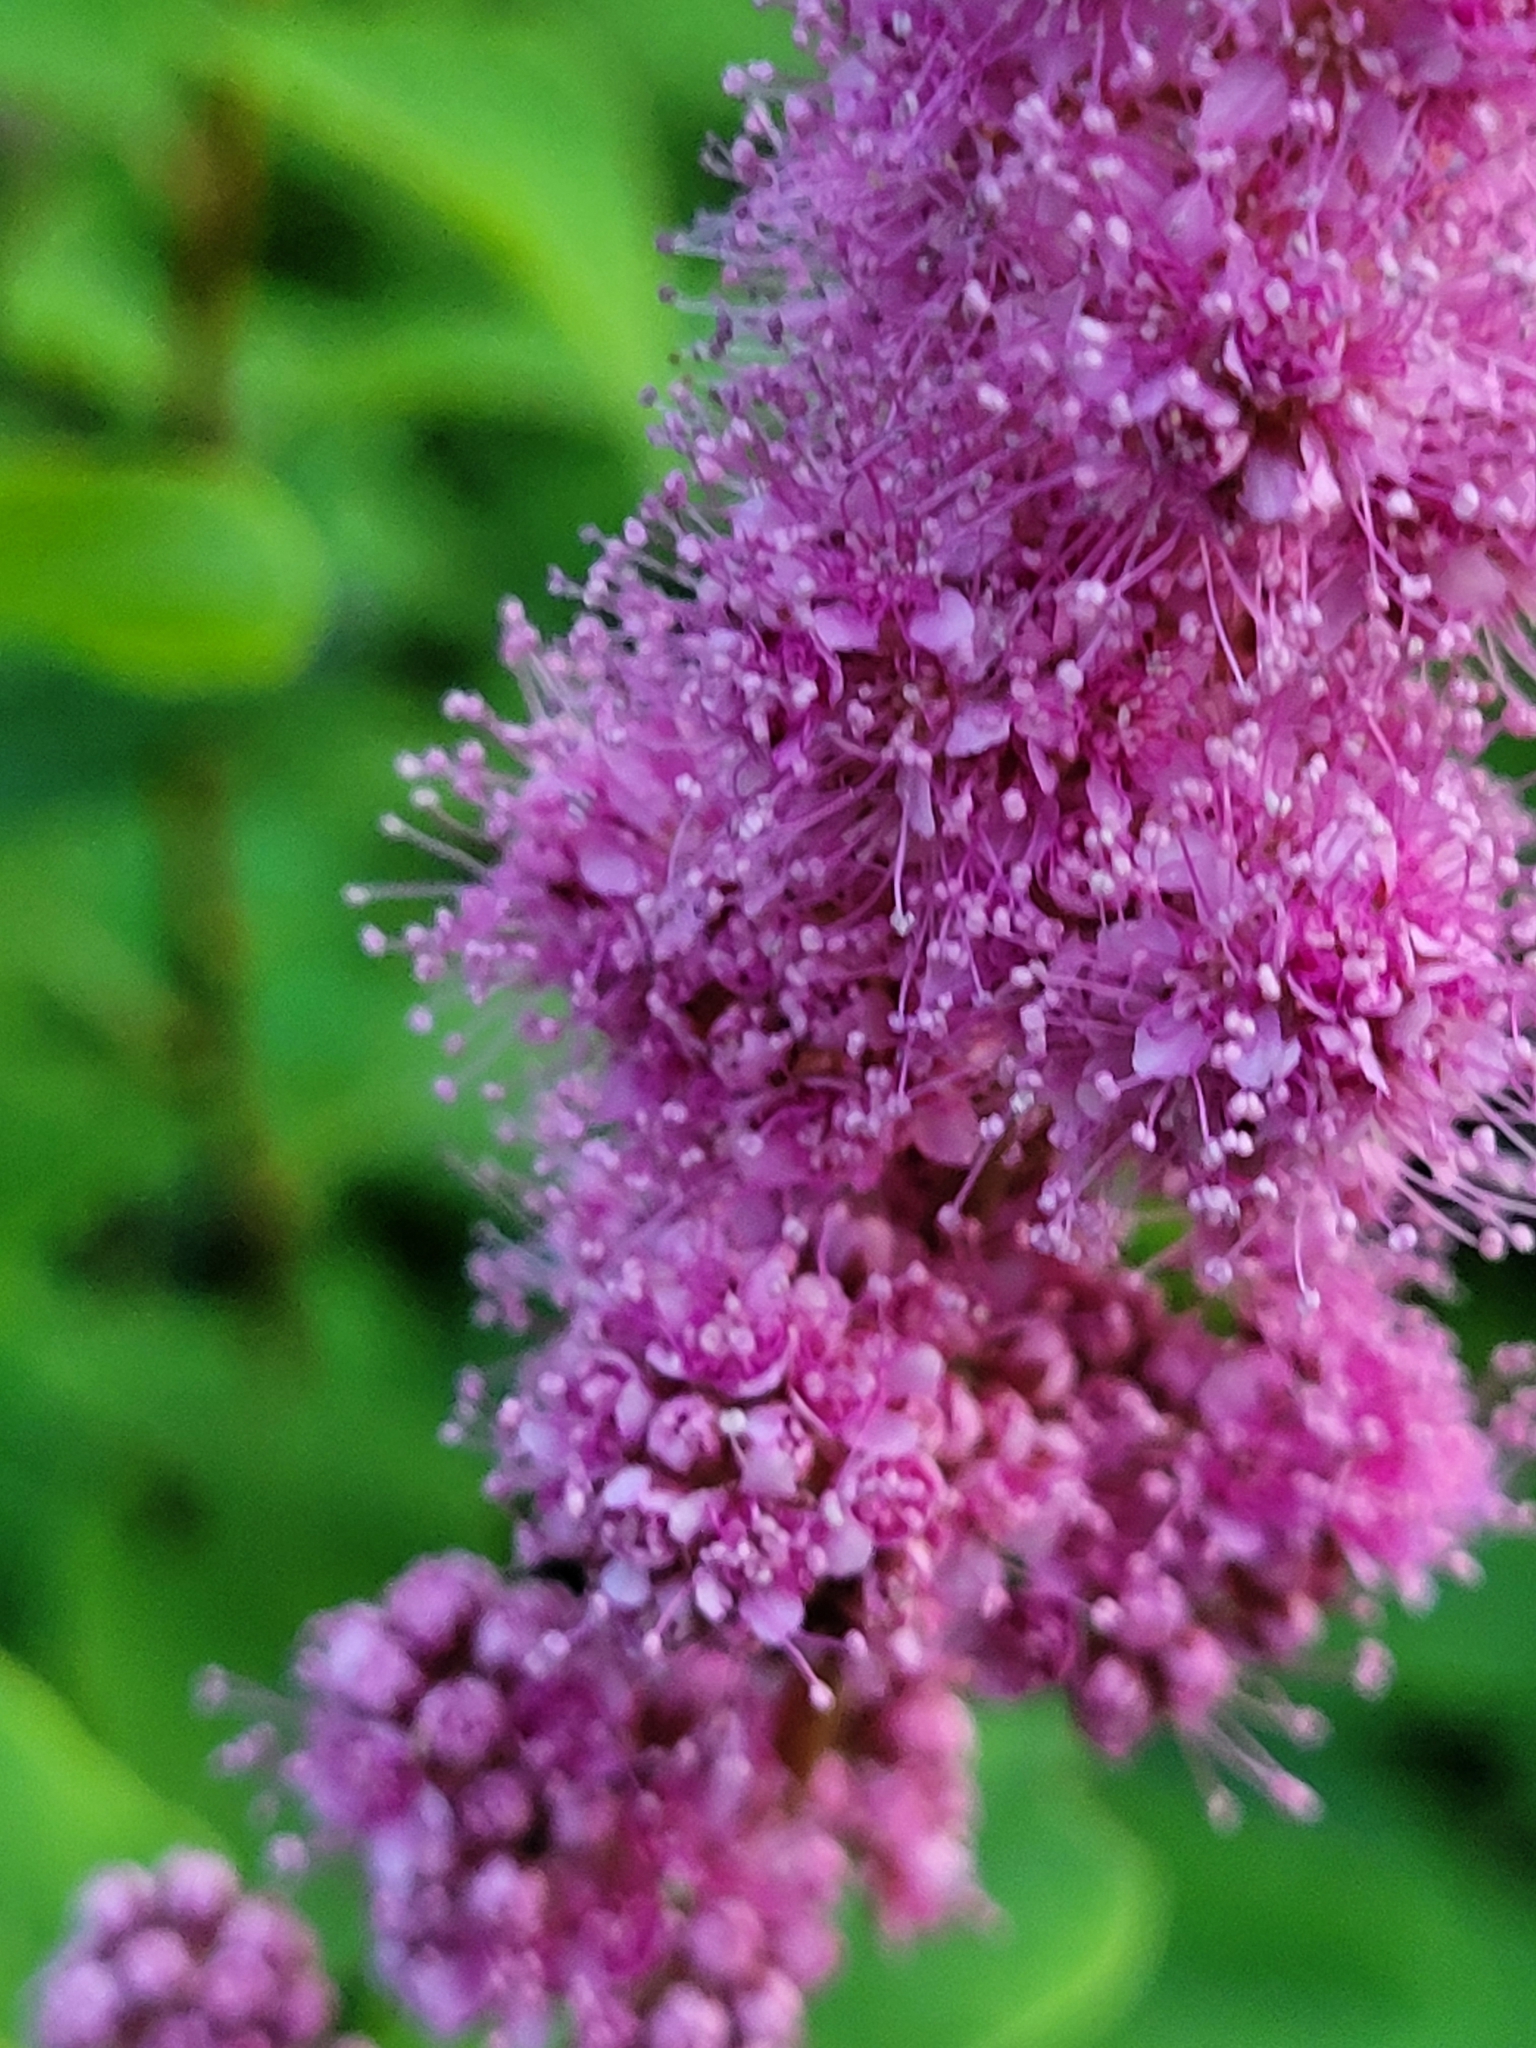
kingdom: Plantae
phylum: Tracheophyta
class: Magnoliopsida
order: Rosales
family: Rosaceae
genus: Spiraea
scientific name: Spiraea douglasii
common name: Steeplebush
